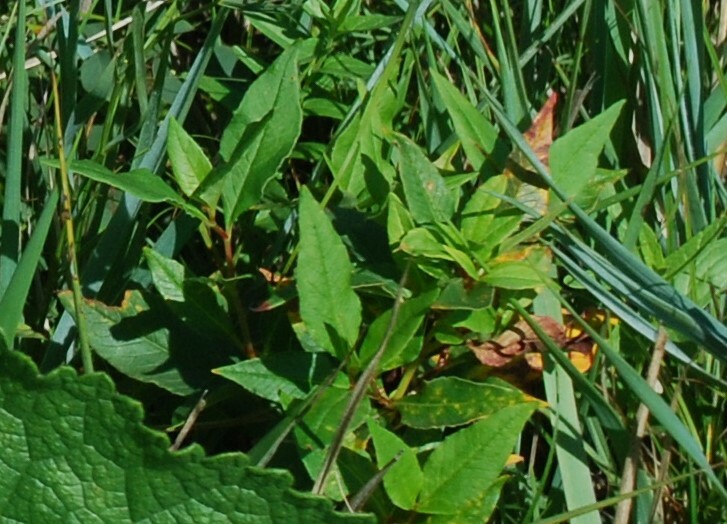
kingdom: Plantae
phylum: Tracheophyta
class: Magnoliopsida
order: Caryophyllales
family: Polygonaceae
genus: Koenigia
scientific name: Koenigia alpina
